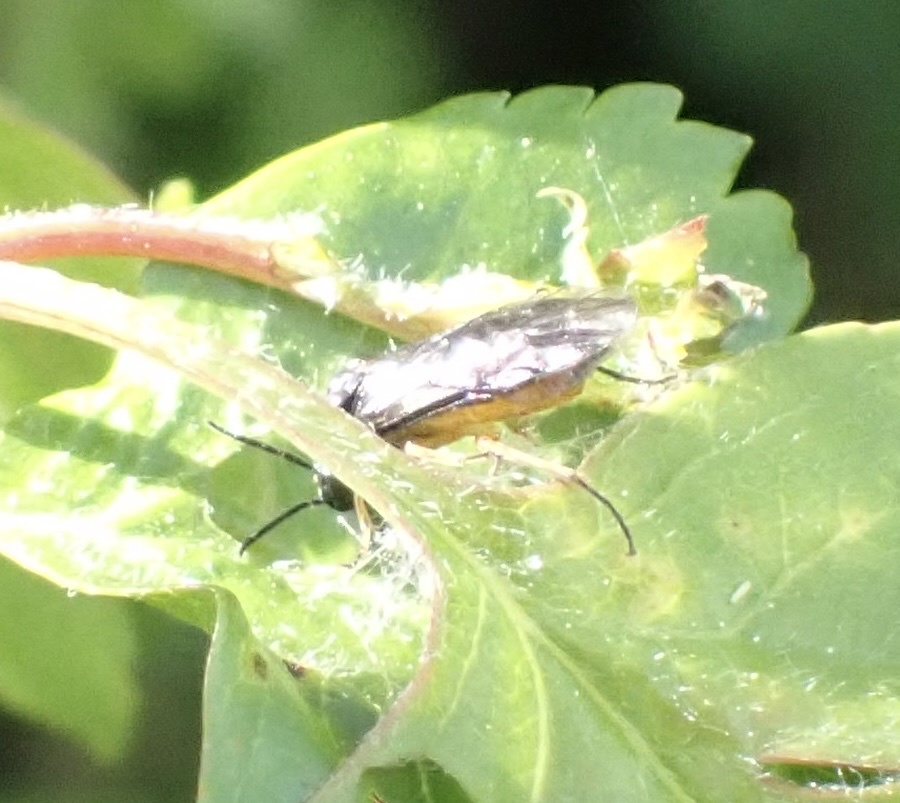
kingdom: Animalia
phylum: Arthropoda
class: Insecta
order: Hymenoptera
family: Tenthredinidae
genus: Halidamia
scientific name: Halidamia affinis
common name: Wasp
